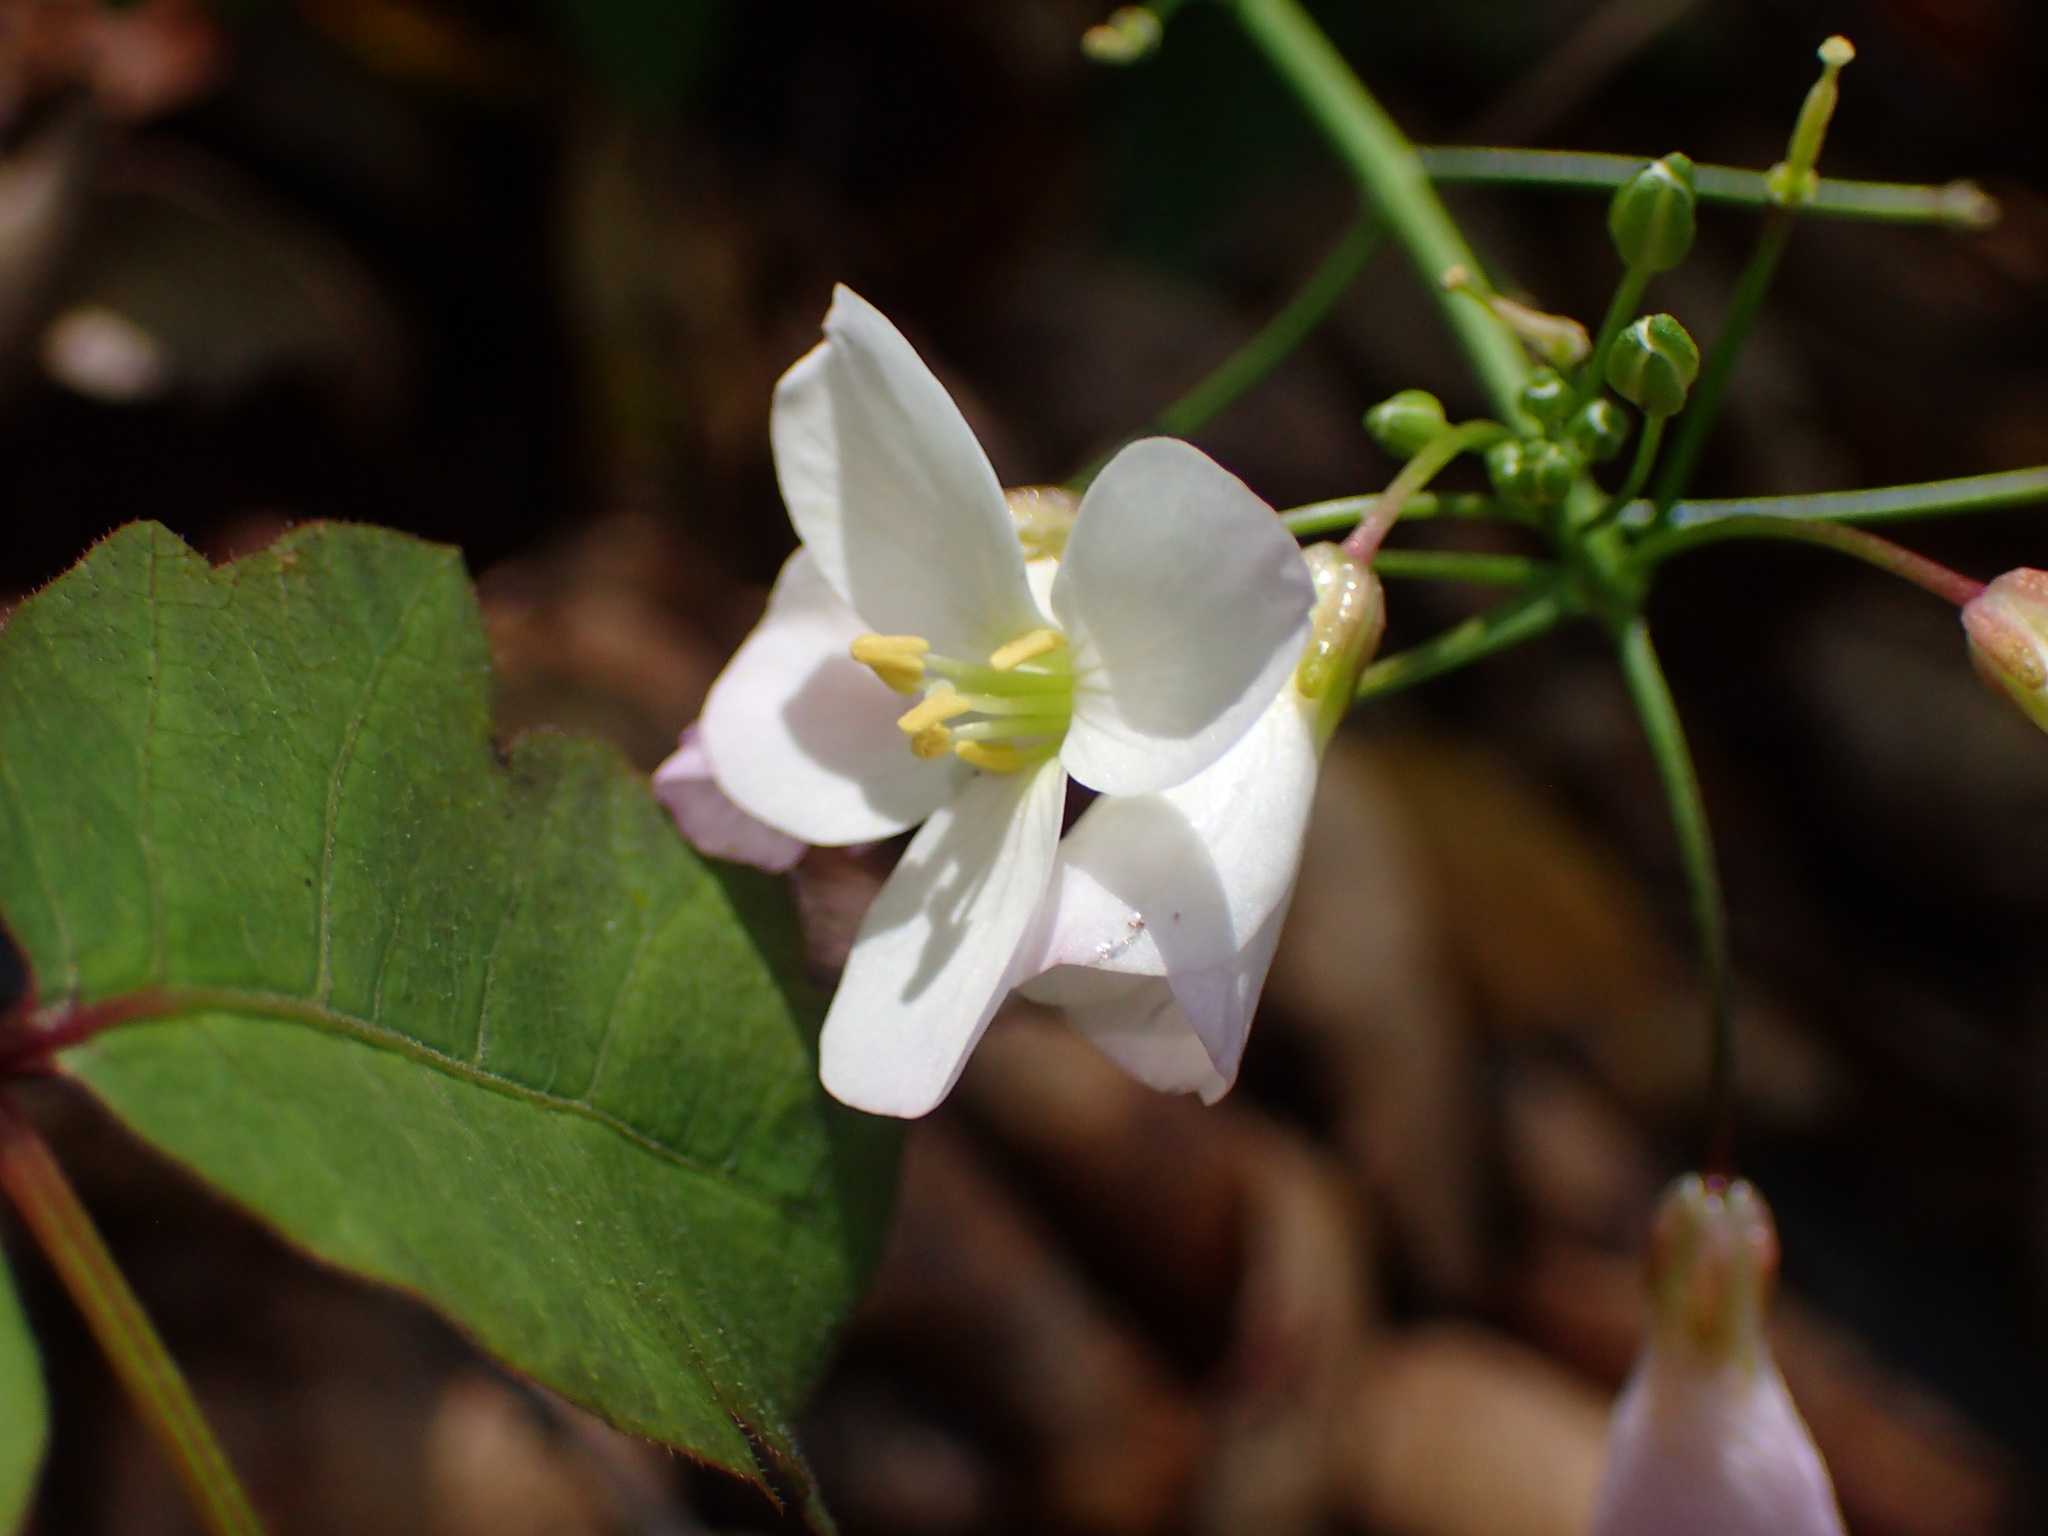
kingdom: Plantae
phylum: Tracheophyta
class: Magnoliopsida
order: Brassicales
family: Brassicaceae
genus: Cardamine
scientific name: Cardamine californica
